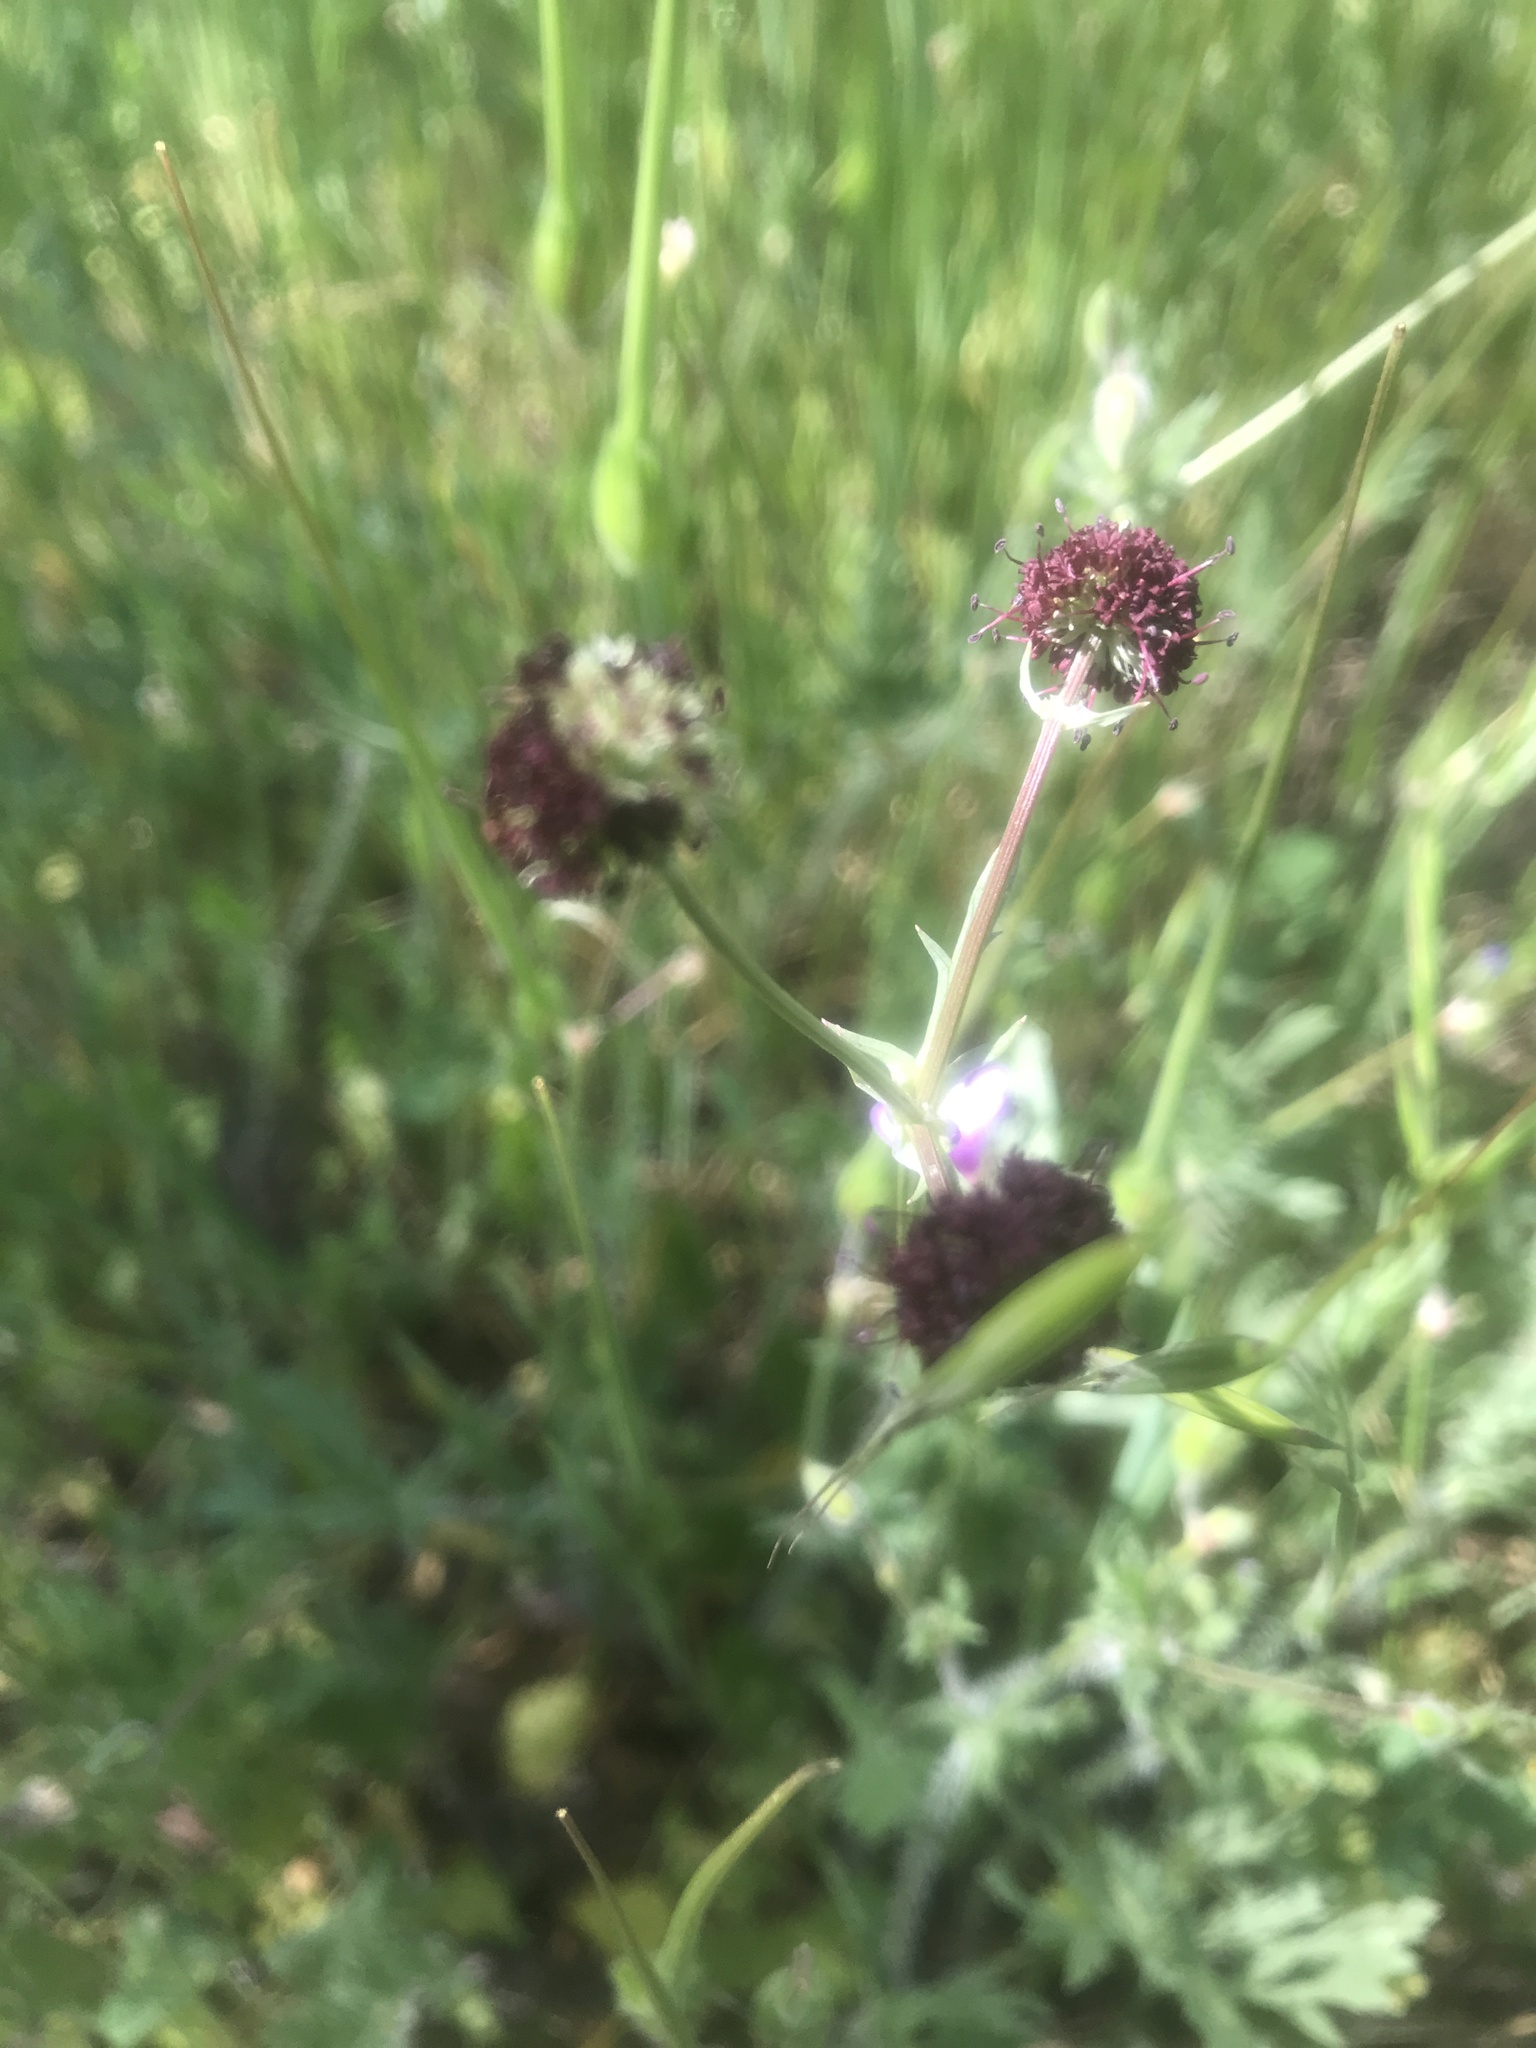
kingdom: Plantae
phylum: Tracheophyta
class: Magnoliopsida
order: Apiales
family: Apiaceae
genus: Sanicula
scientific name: Sanicula bipinnatifida
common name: Shoe-buttons
